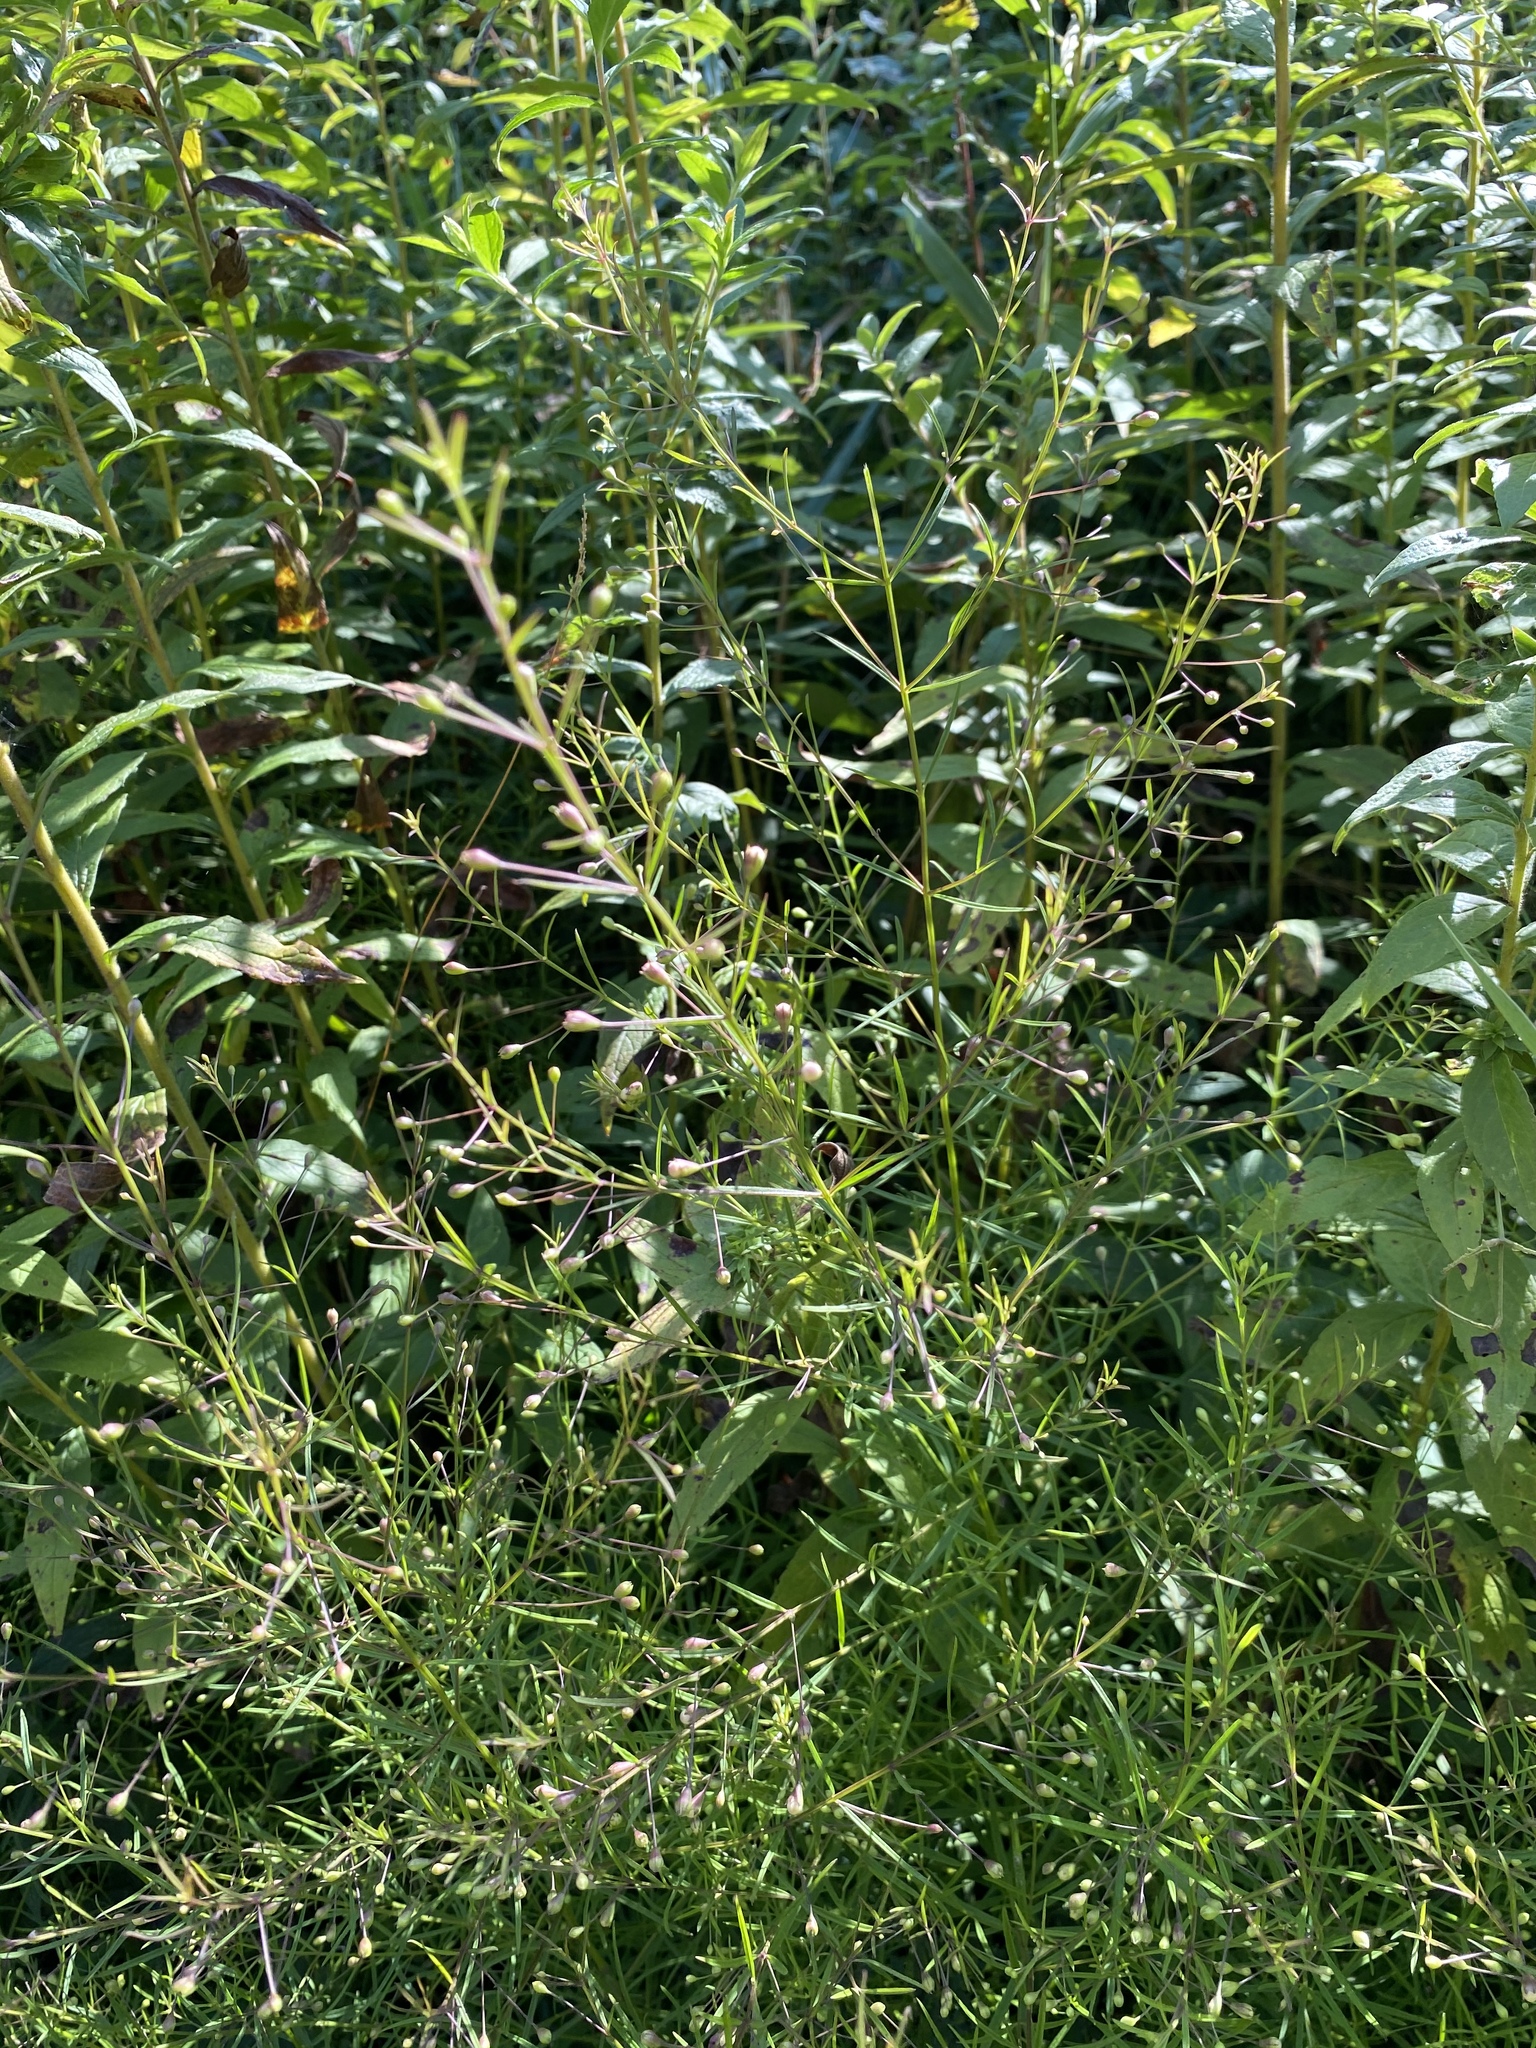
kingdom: Plantae
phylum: Tracheophyta
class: Magnoliopsida
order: Lamiales
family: Orobanchaceae
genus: Agalinis
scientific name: Agalinis tenuifolia
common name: Slender agalinis
